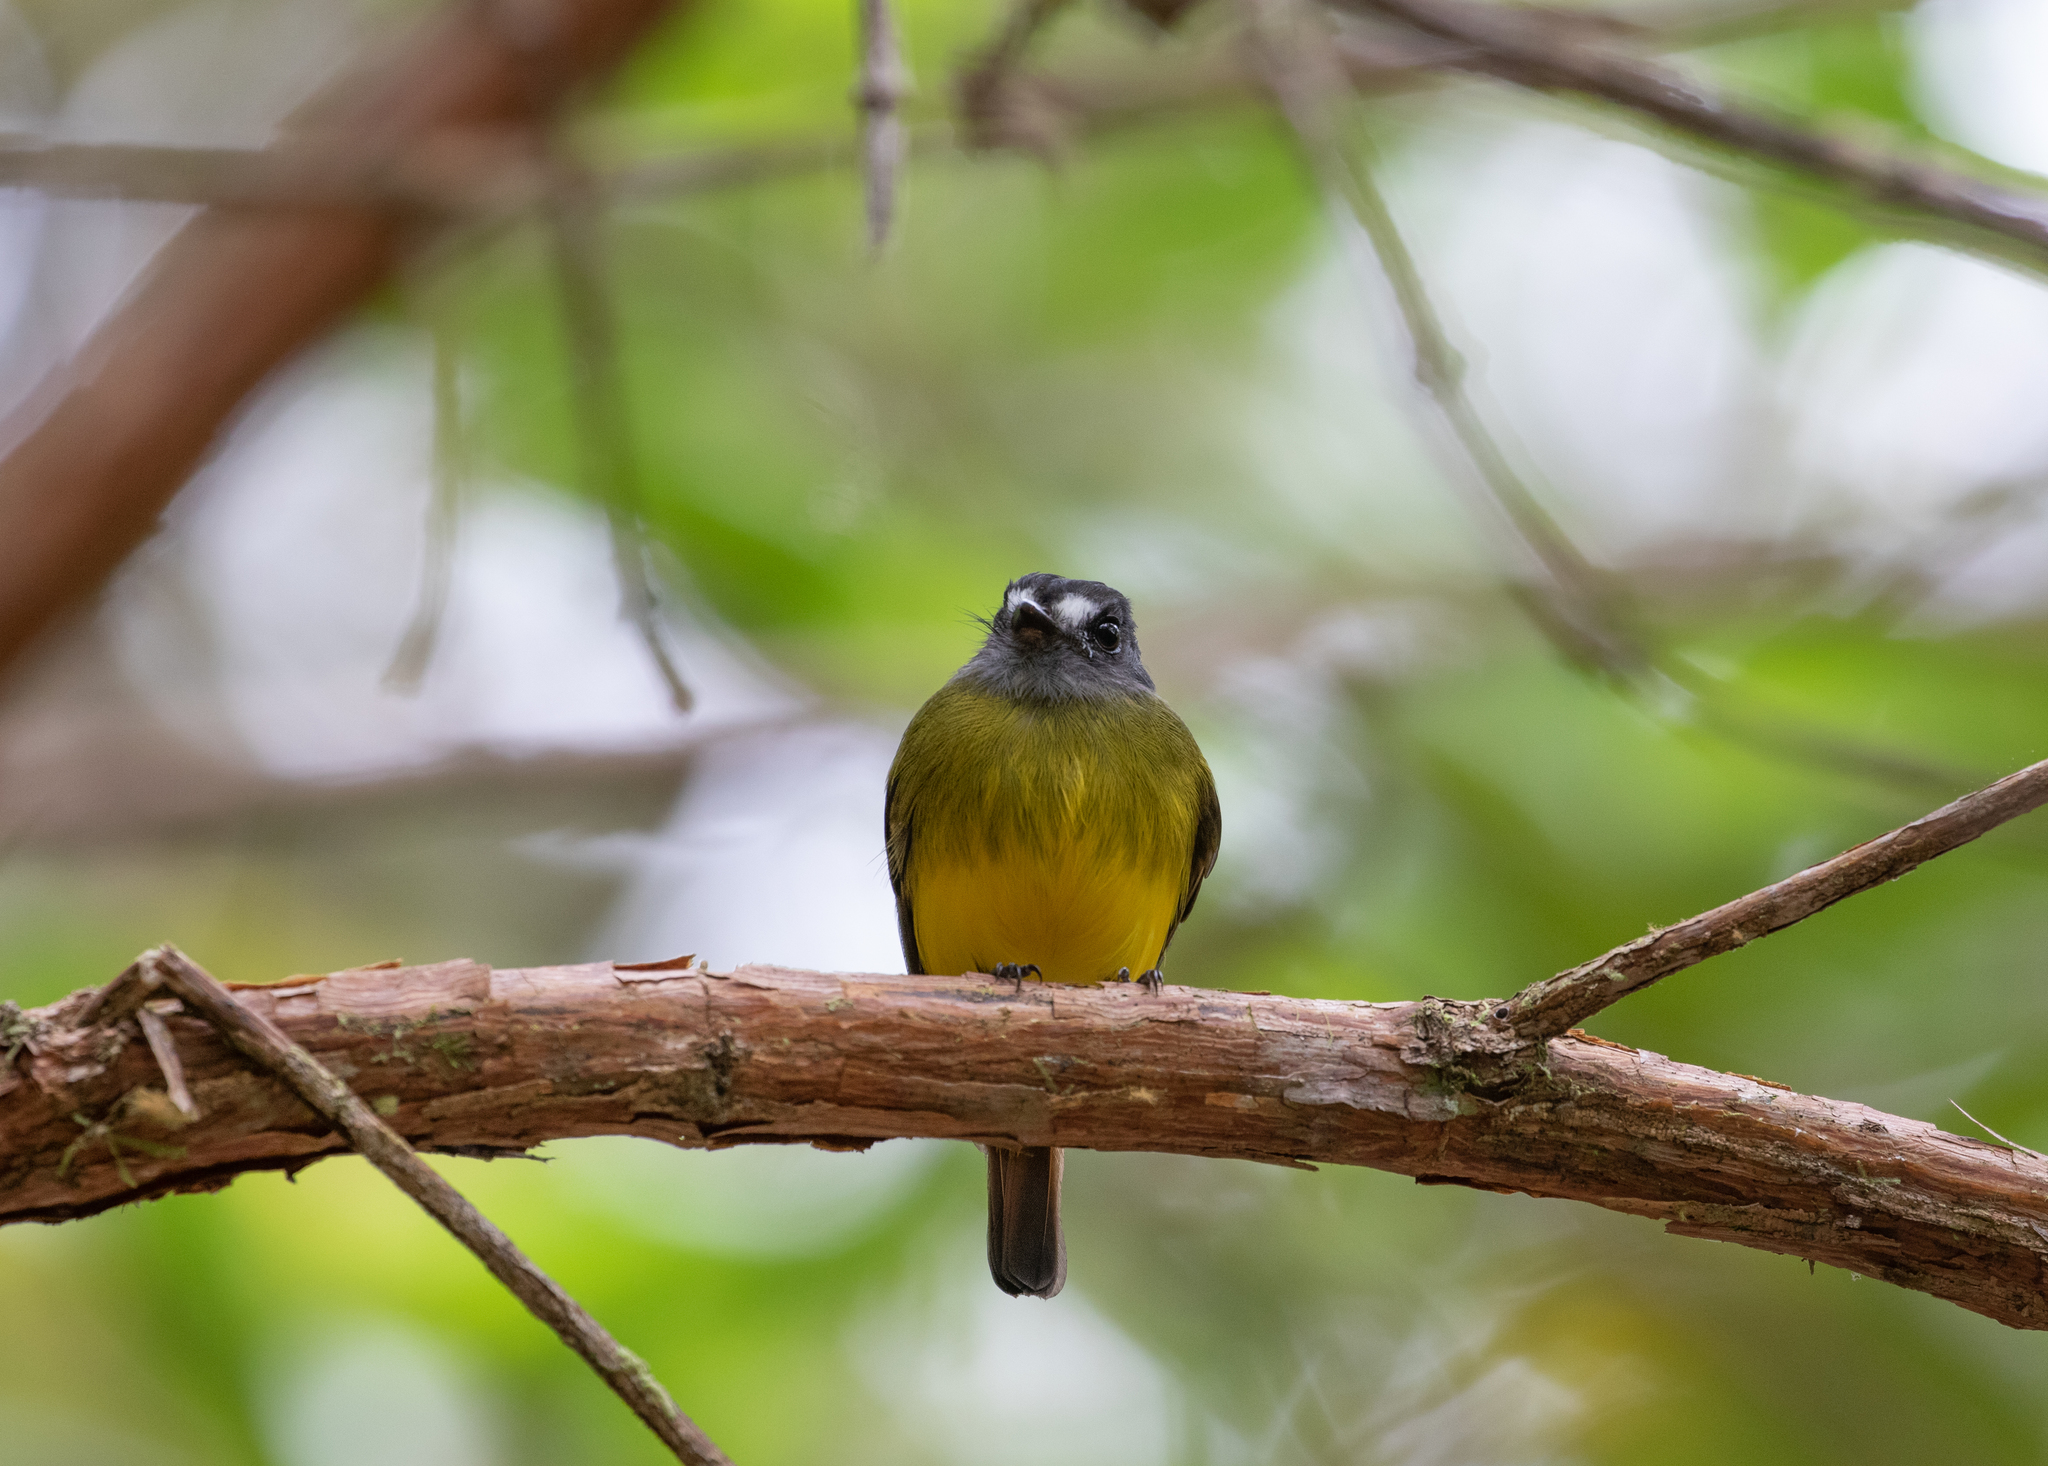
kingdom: Animalia
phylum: Chordata
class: Aves
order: Passeriformes
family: Tyrannidae
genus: Myiotriccus
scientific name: Myiotriccus ornatus
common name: Ornate flycatcher
